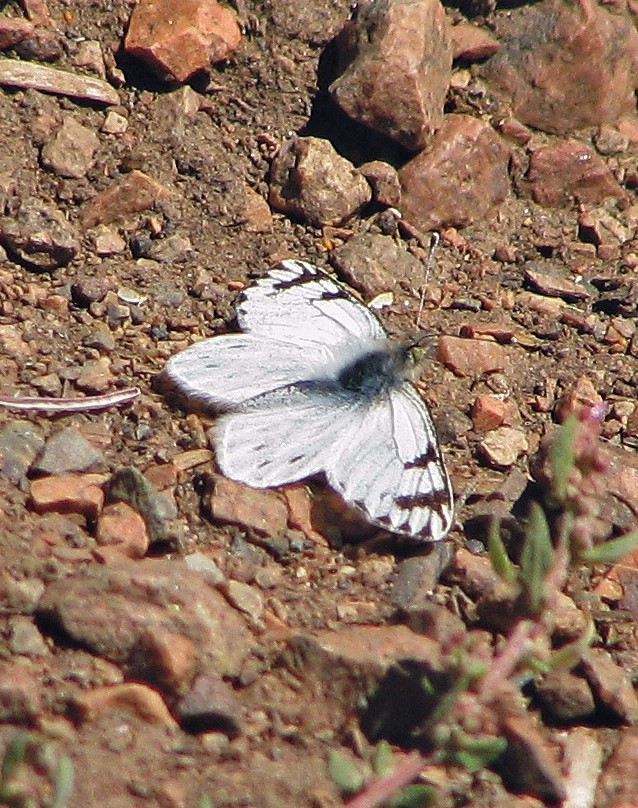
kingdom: Animalia
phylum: Arthropoda
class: Insecta
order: Lepidoptera
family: Pieridae
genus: Phulia
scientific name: Phulia nymphula
